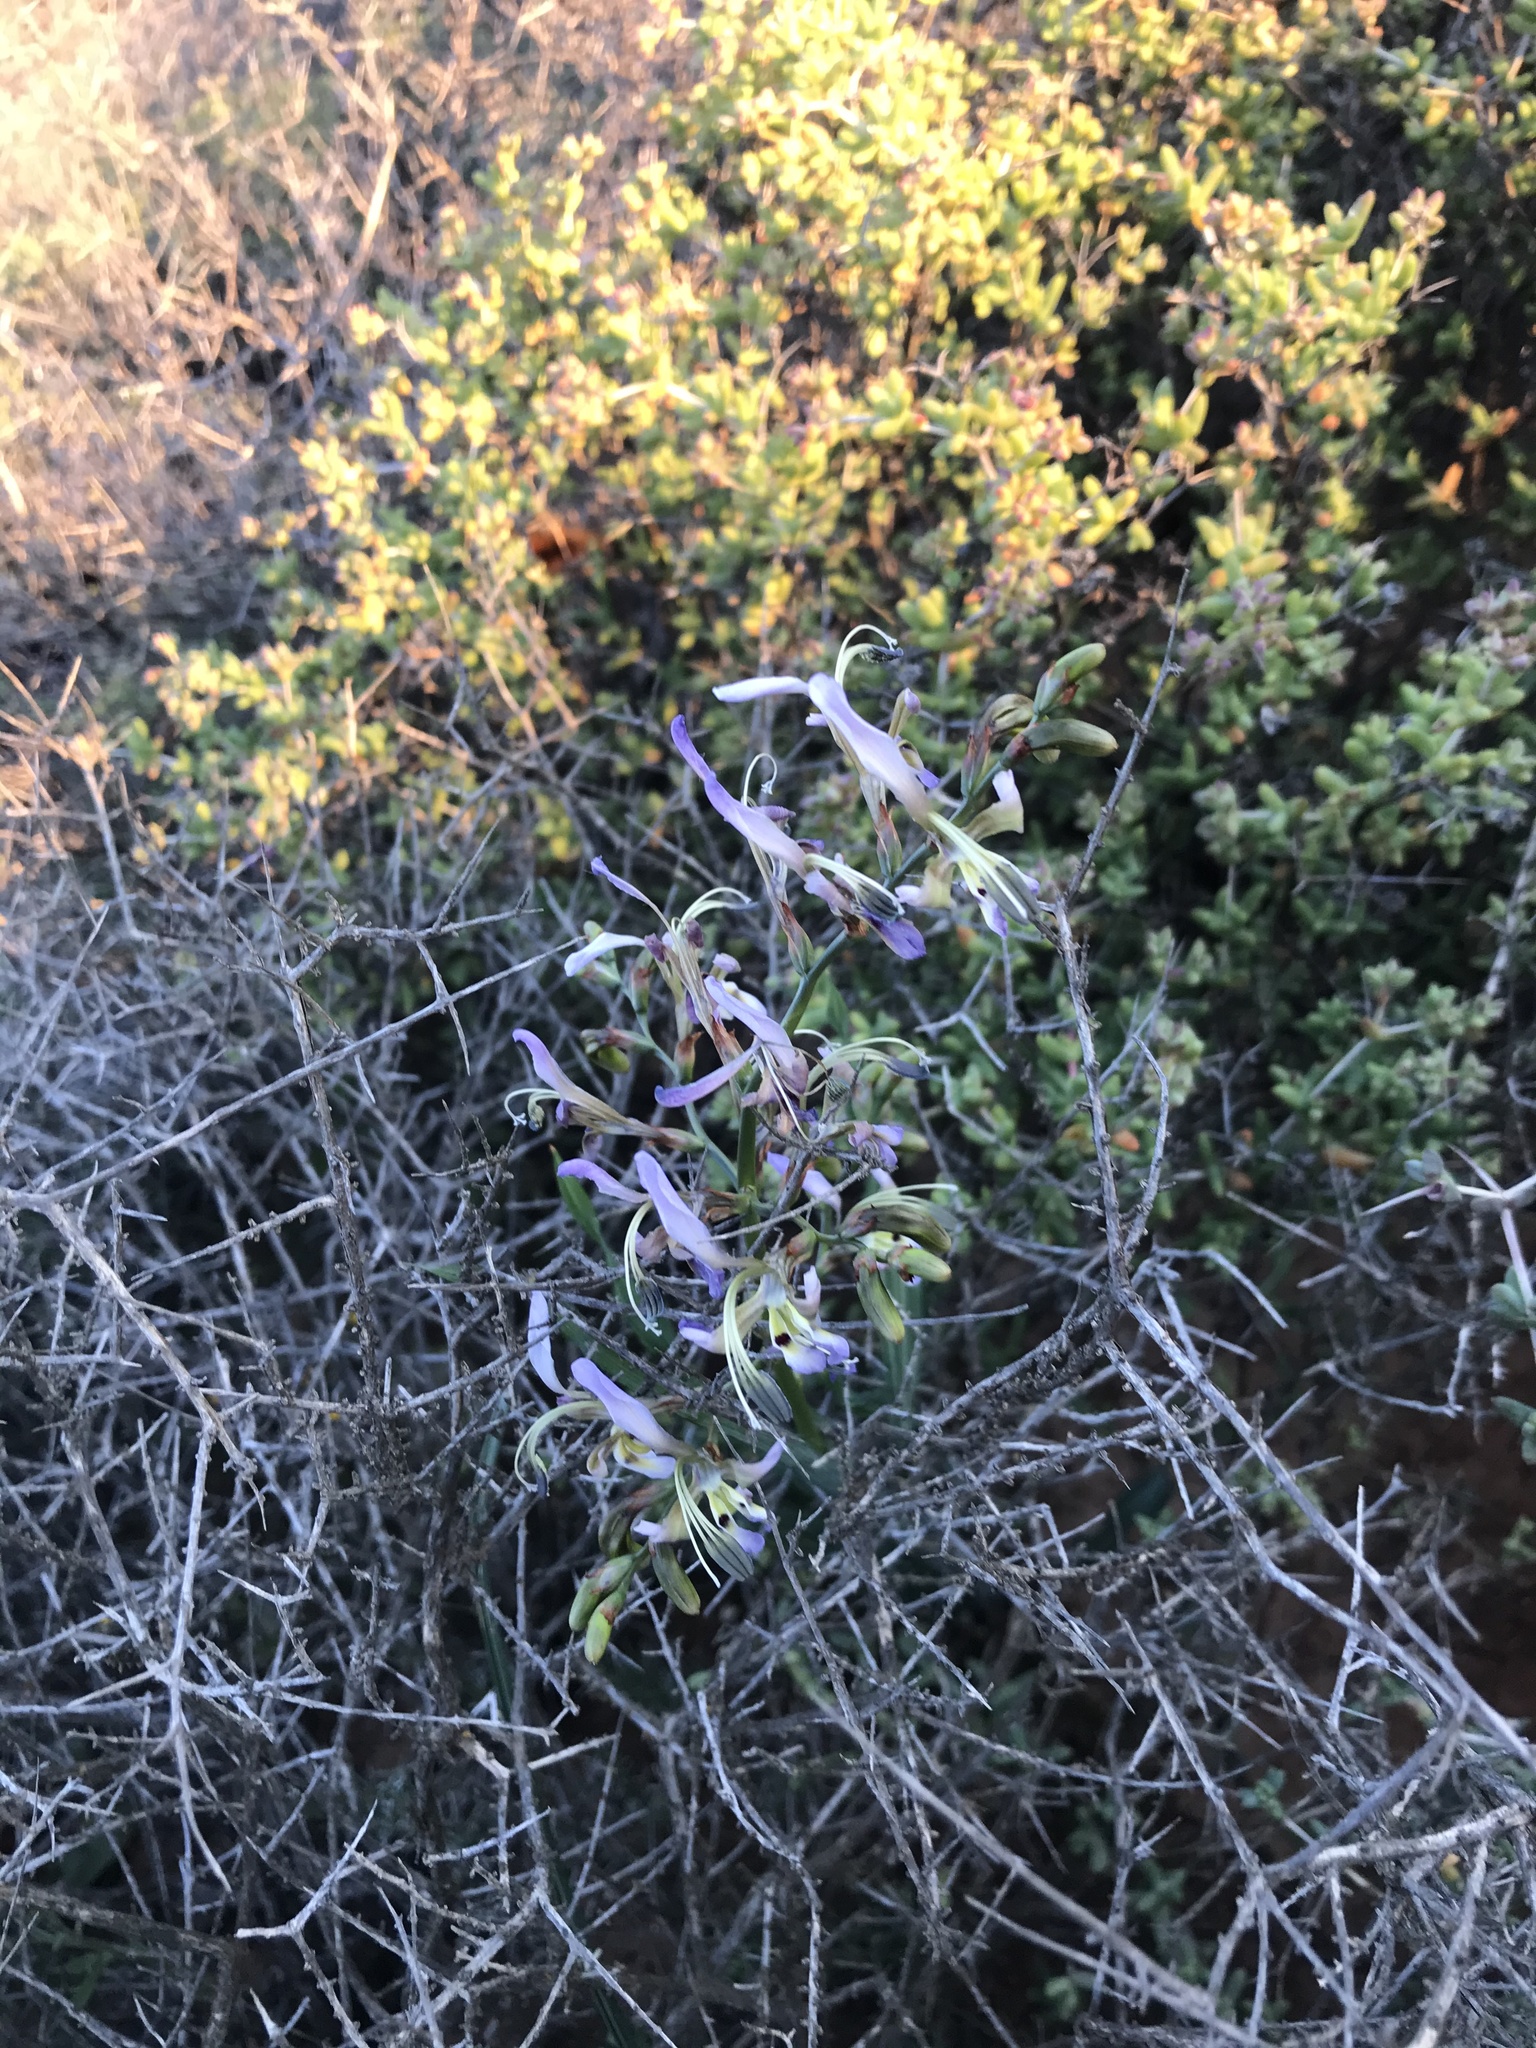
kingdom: Plantae
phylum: Tracheophyta
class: Liliopsida
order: Asparagales
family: Iridaceae
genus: Babiana
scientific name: Babiana sinuata
